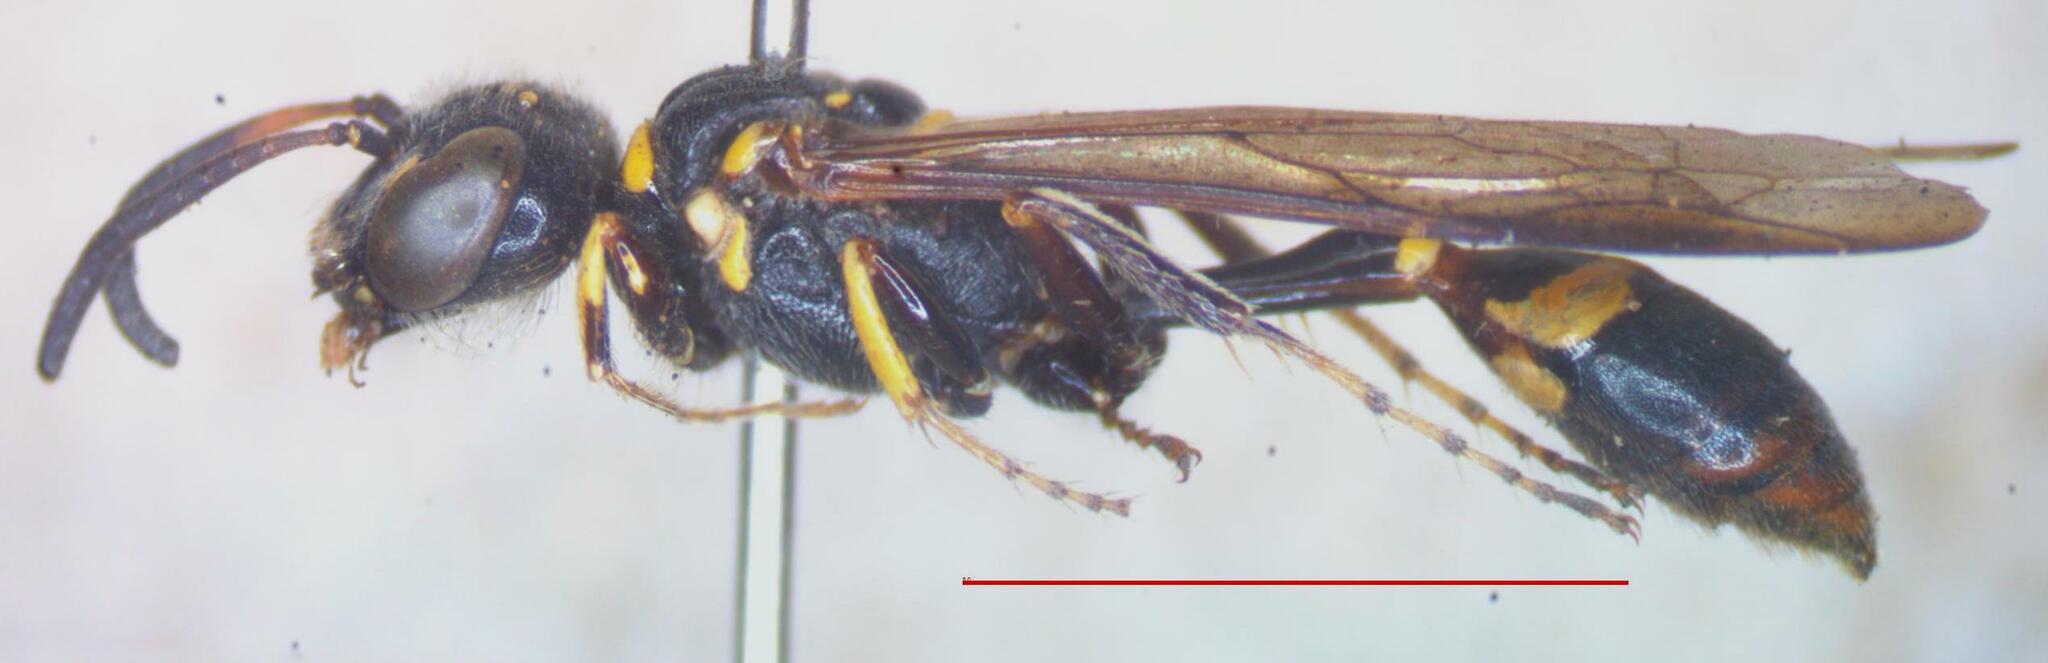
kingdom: Animalia
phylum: Arthropoda
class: Insecta
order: Hymenoptera
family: Crabronidae
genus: Trachypus
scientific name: Trachypus petiolatus
